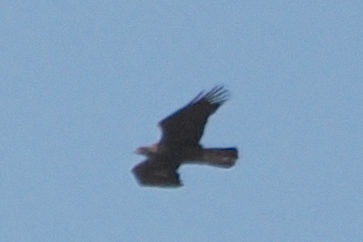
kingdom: Animalia
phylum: Chordata
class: Aves
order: Accipitriformes
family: Accipitridae
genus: Aquila
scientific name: Aquila chrysaetos
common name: Golden eagle
